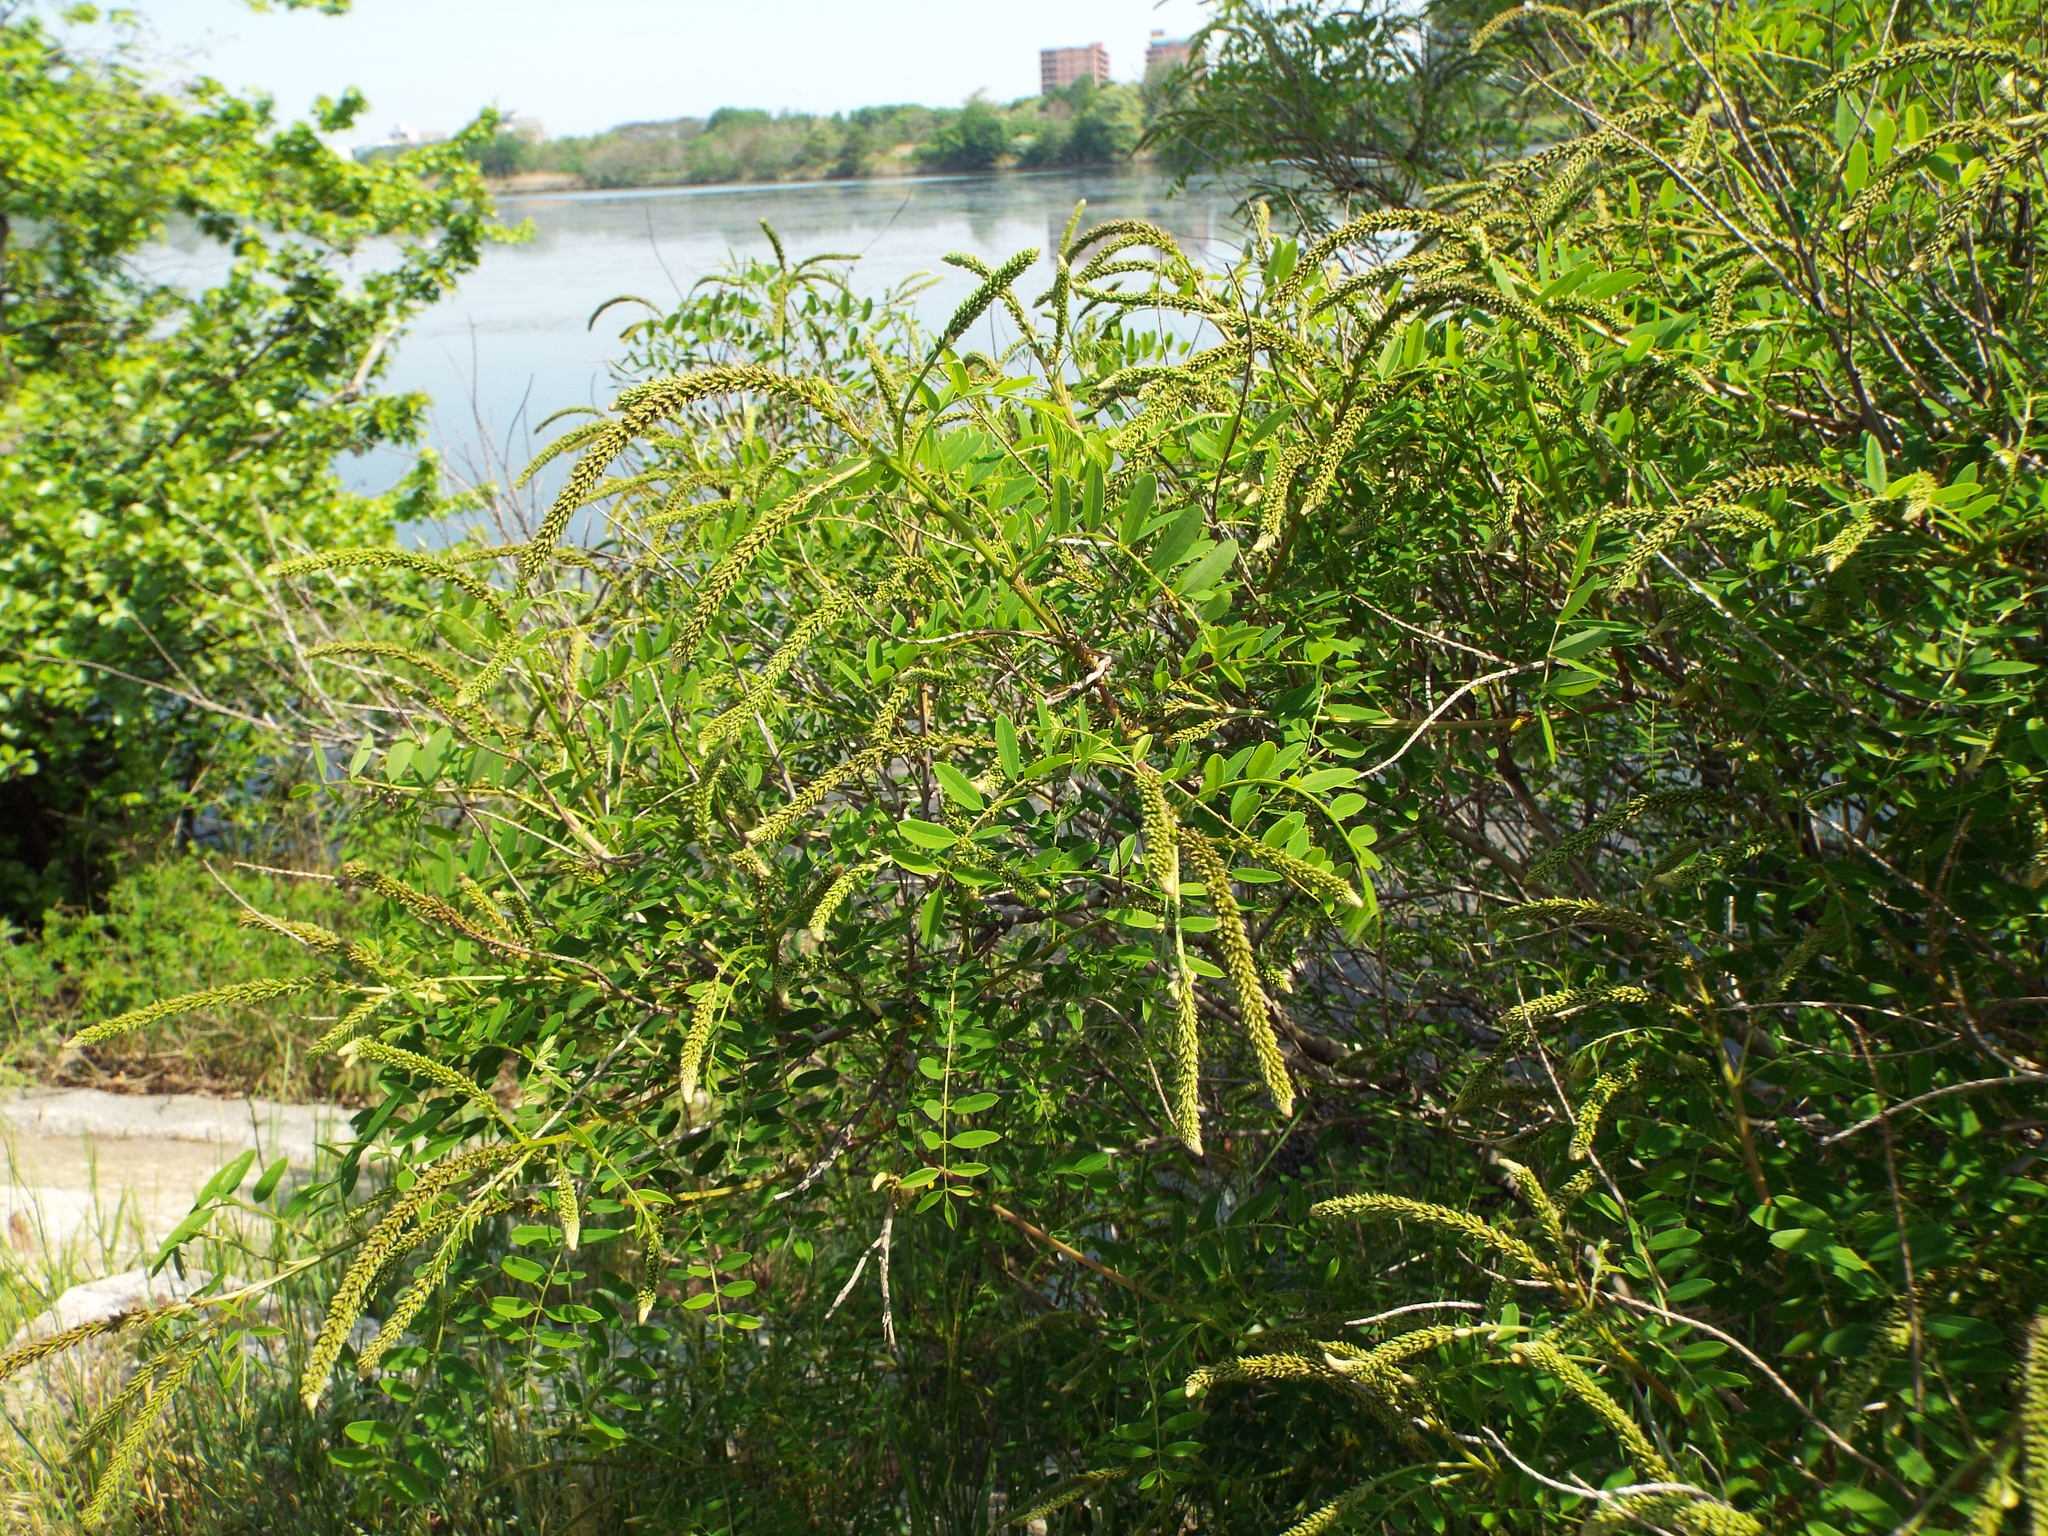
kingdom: Plantae
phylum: Tracheophyta
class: Magnoliopsida
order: Fabales
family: Fabaceae
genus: Amorpha
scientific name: Amorpha fruticosa
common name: False indigo
